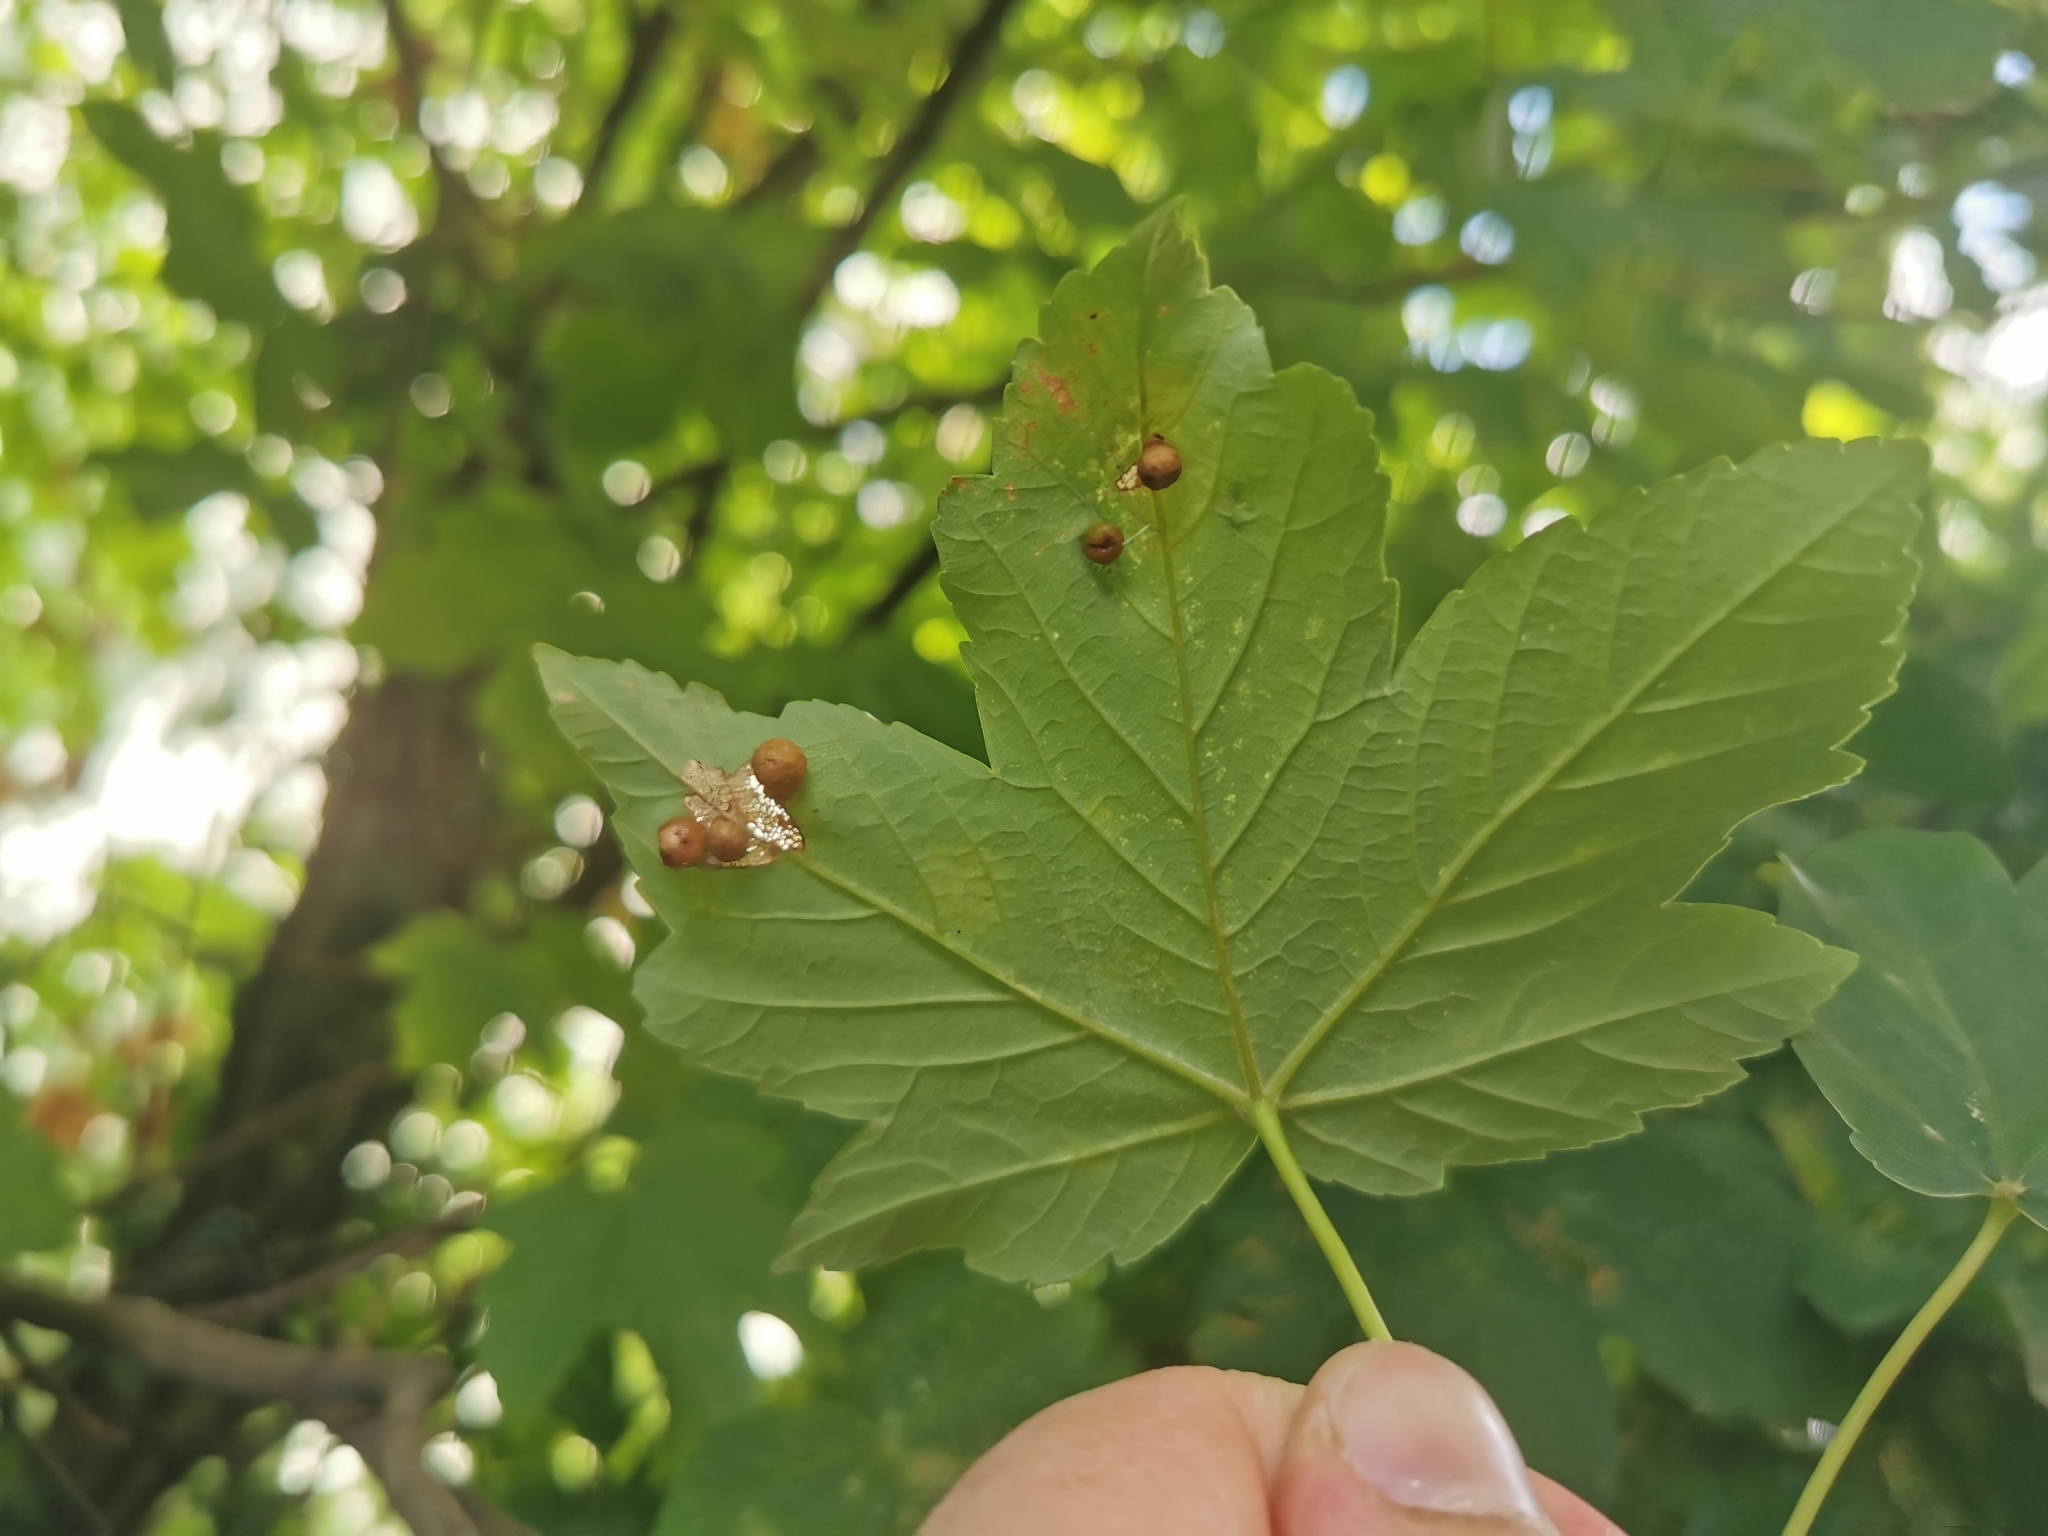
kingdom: Animalia
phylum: Arthropoda
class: Insecta
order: Hymenoptera
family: Cynipidae
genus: Pediaspis
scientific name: Pediaspis aceris
